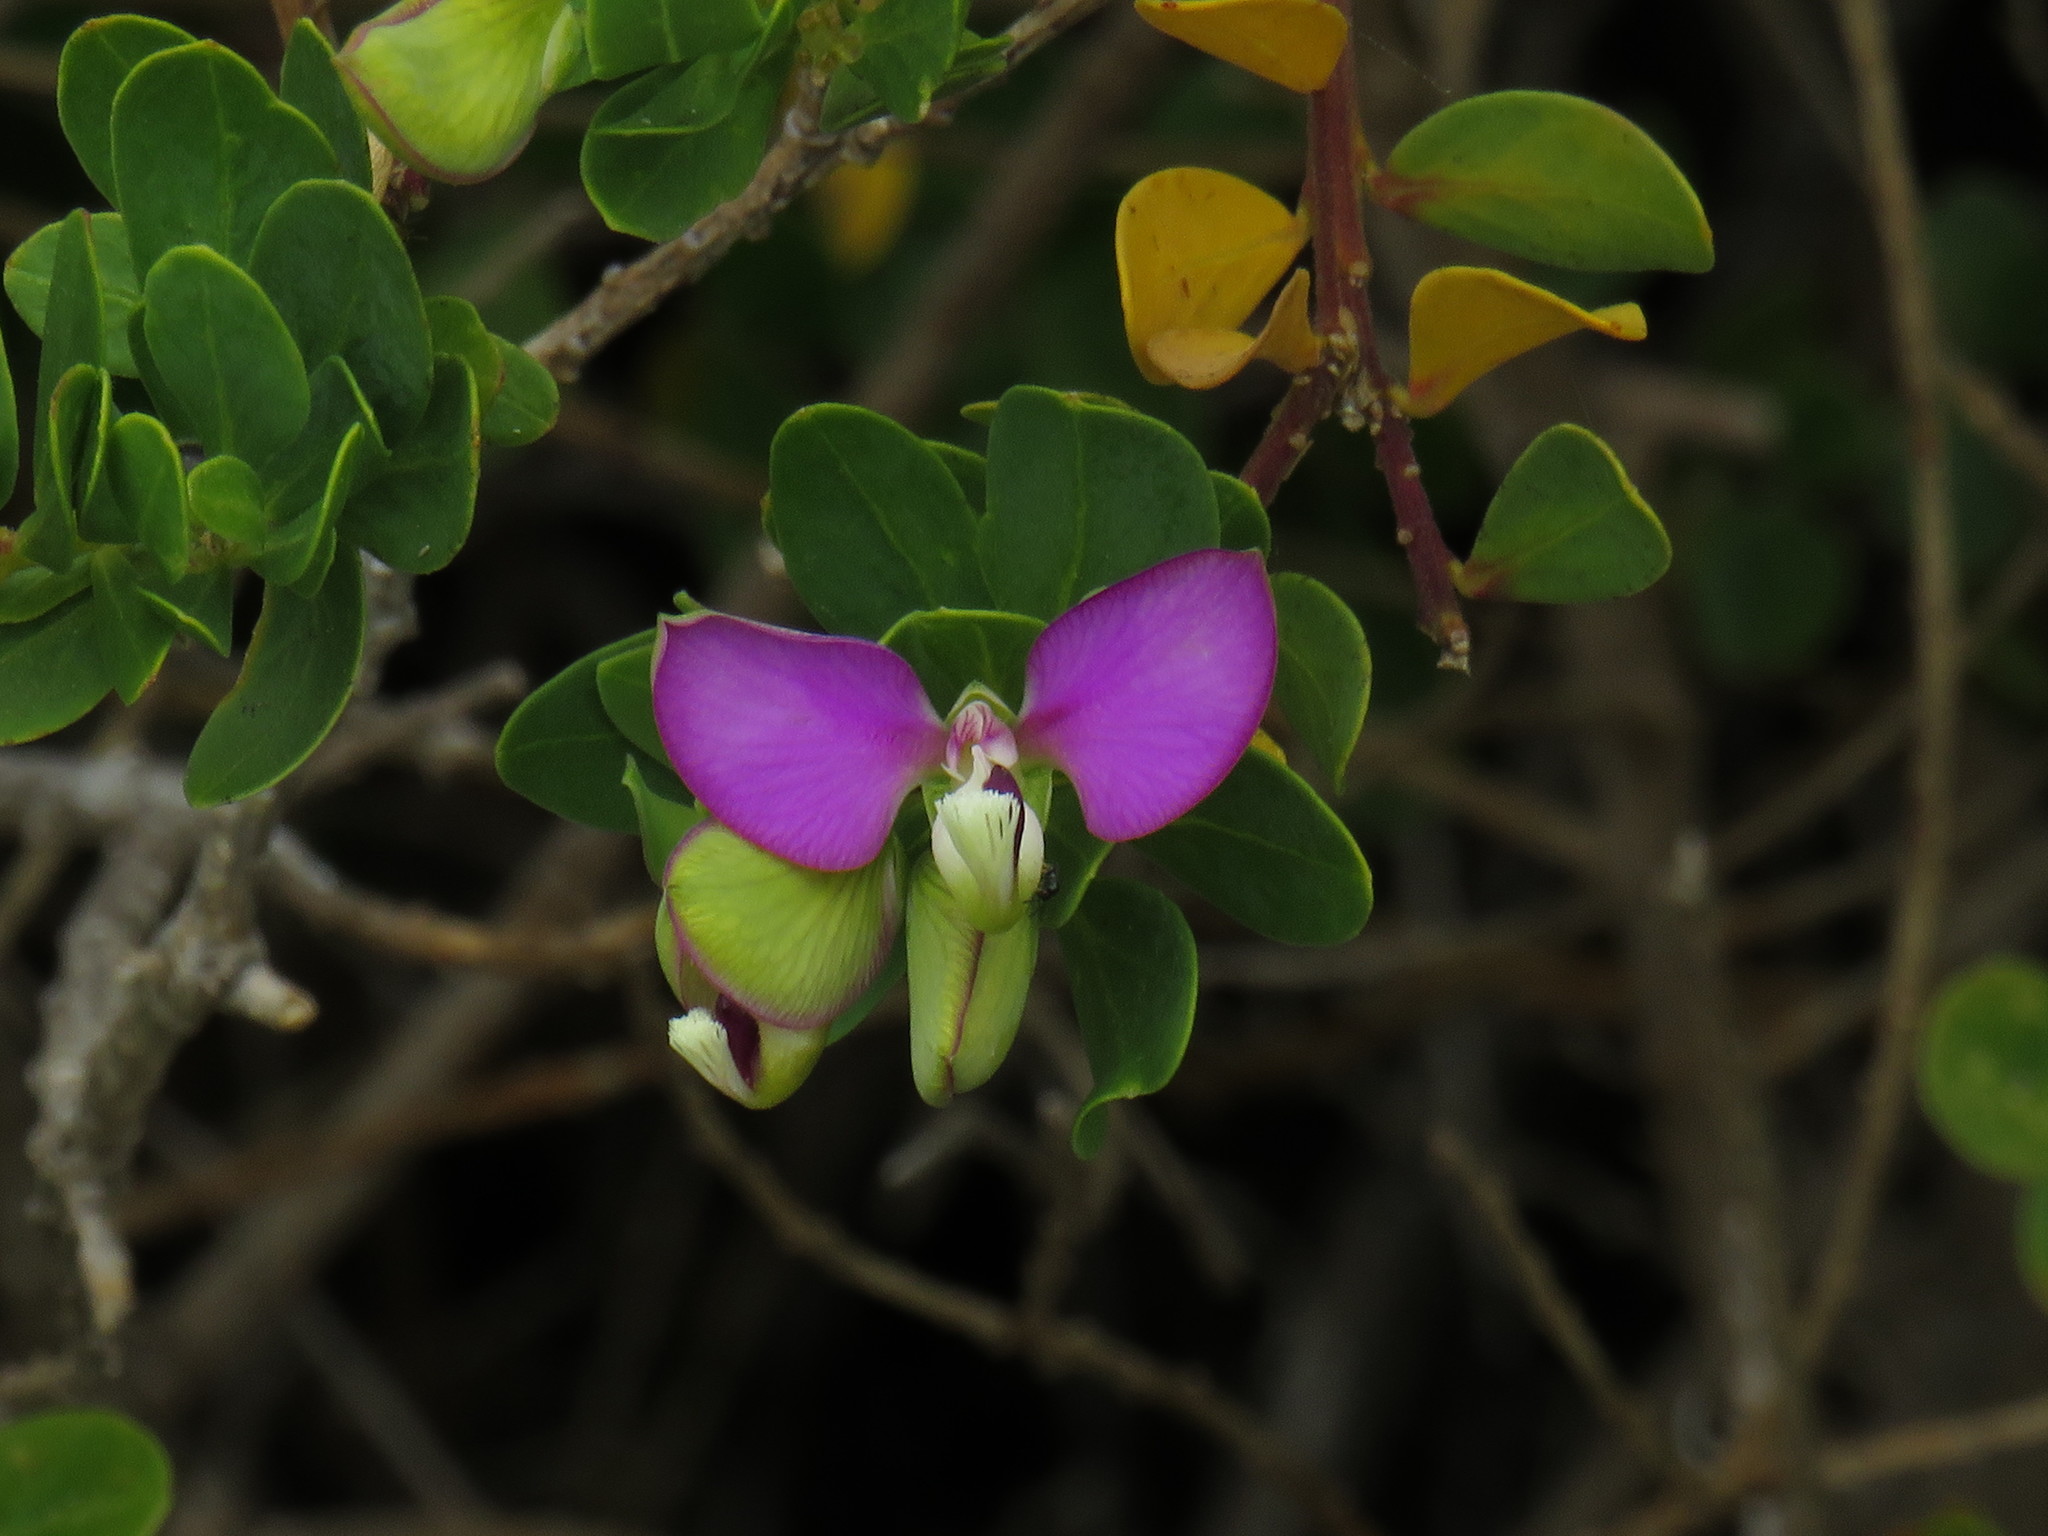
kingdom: Plantae
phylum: Tracheophyta
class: Magnoliopsida
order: Fabales
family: Polygalaceae
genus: Polygala
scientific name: Polygala myrtifolia
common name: Myrtle-leaf milkwort
